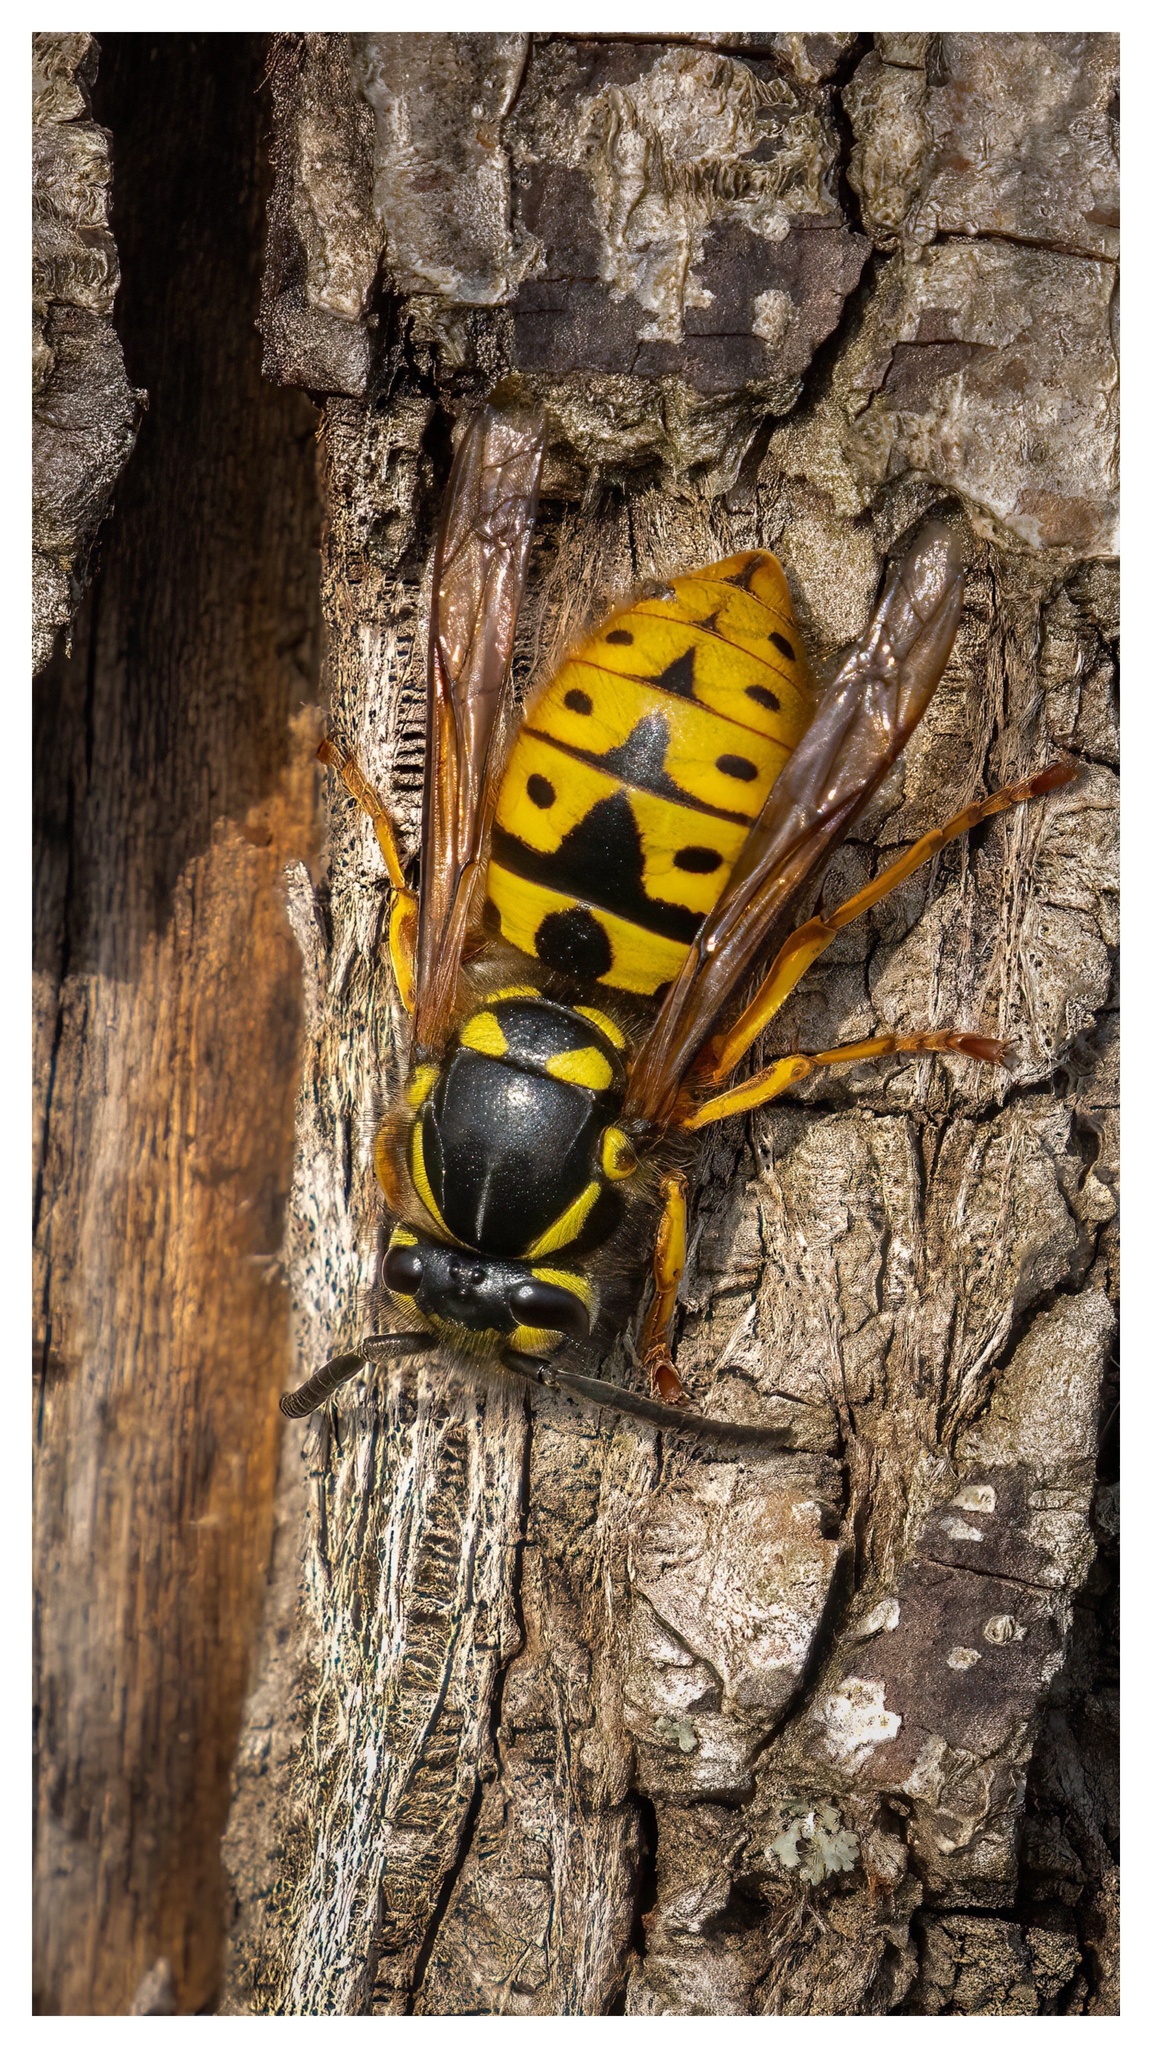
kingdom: Animalia
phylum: Arthropoda
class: Insecta
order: Hymenoptera
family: Vespidae
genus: Vespula
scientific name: Vespula germanica
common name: German wasp
